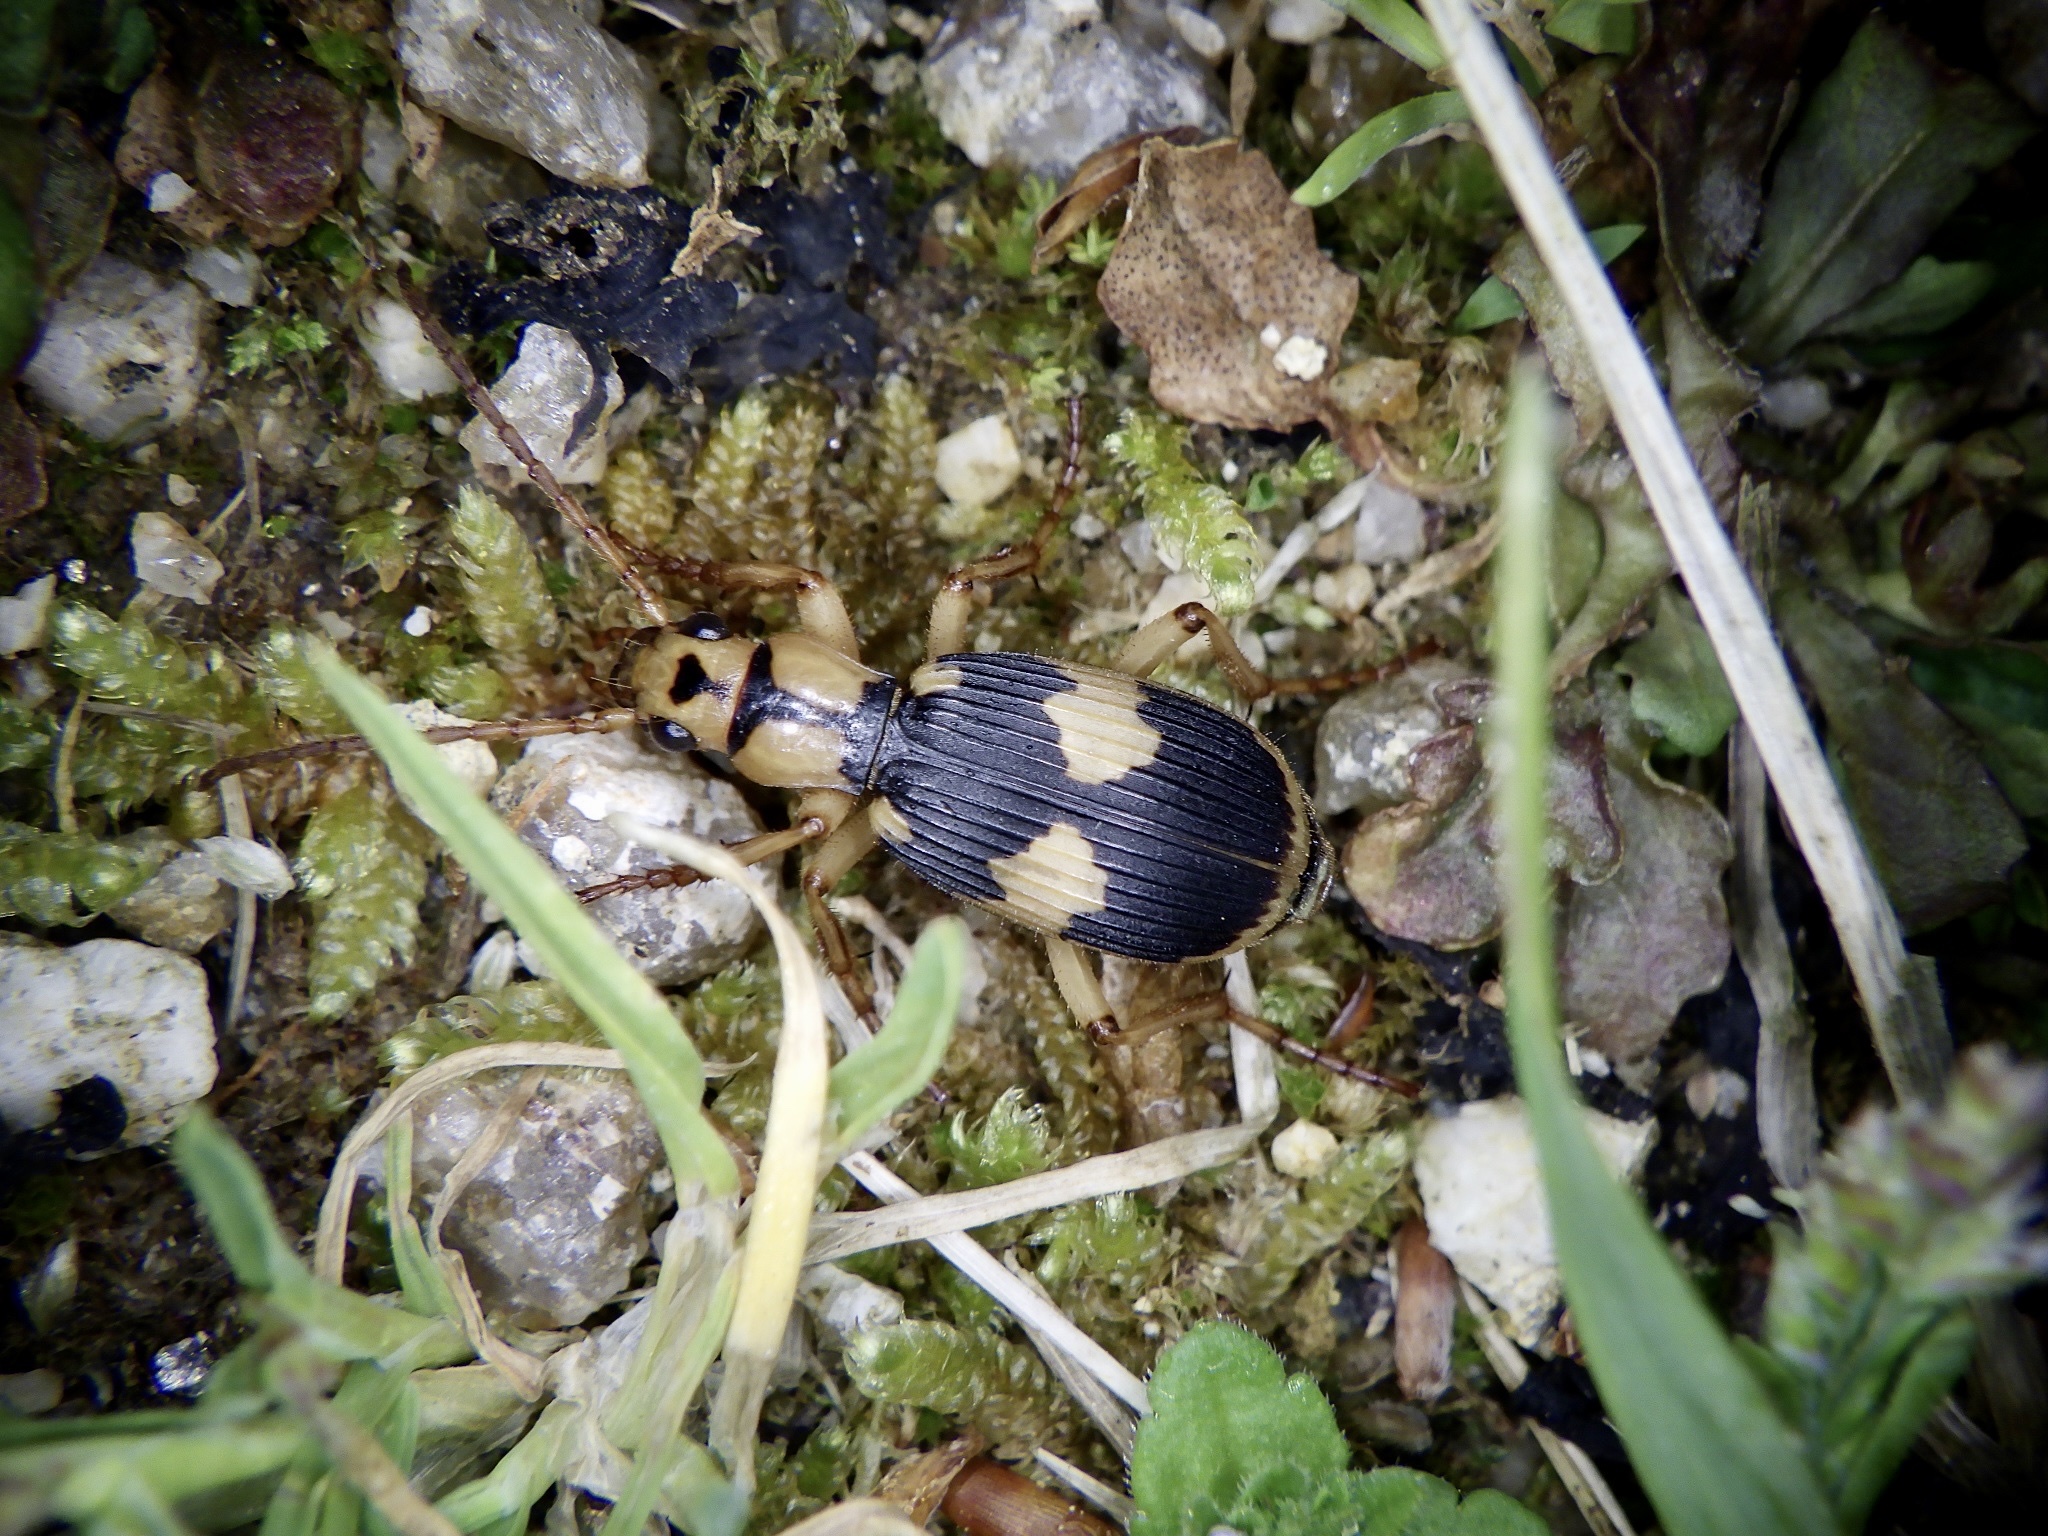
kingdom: Animalia
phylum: Arthropoda
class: Insecta
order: Coleoptera
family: Carabidae
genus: Pheropsophus
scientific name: Pheropsophus jessoensis
